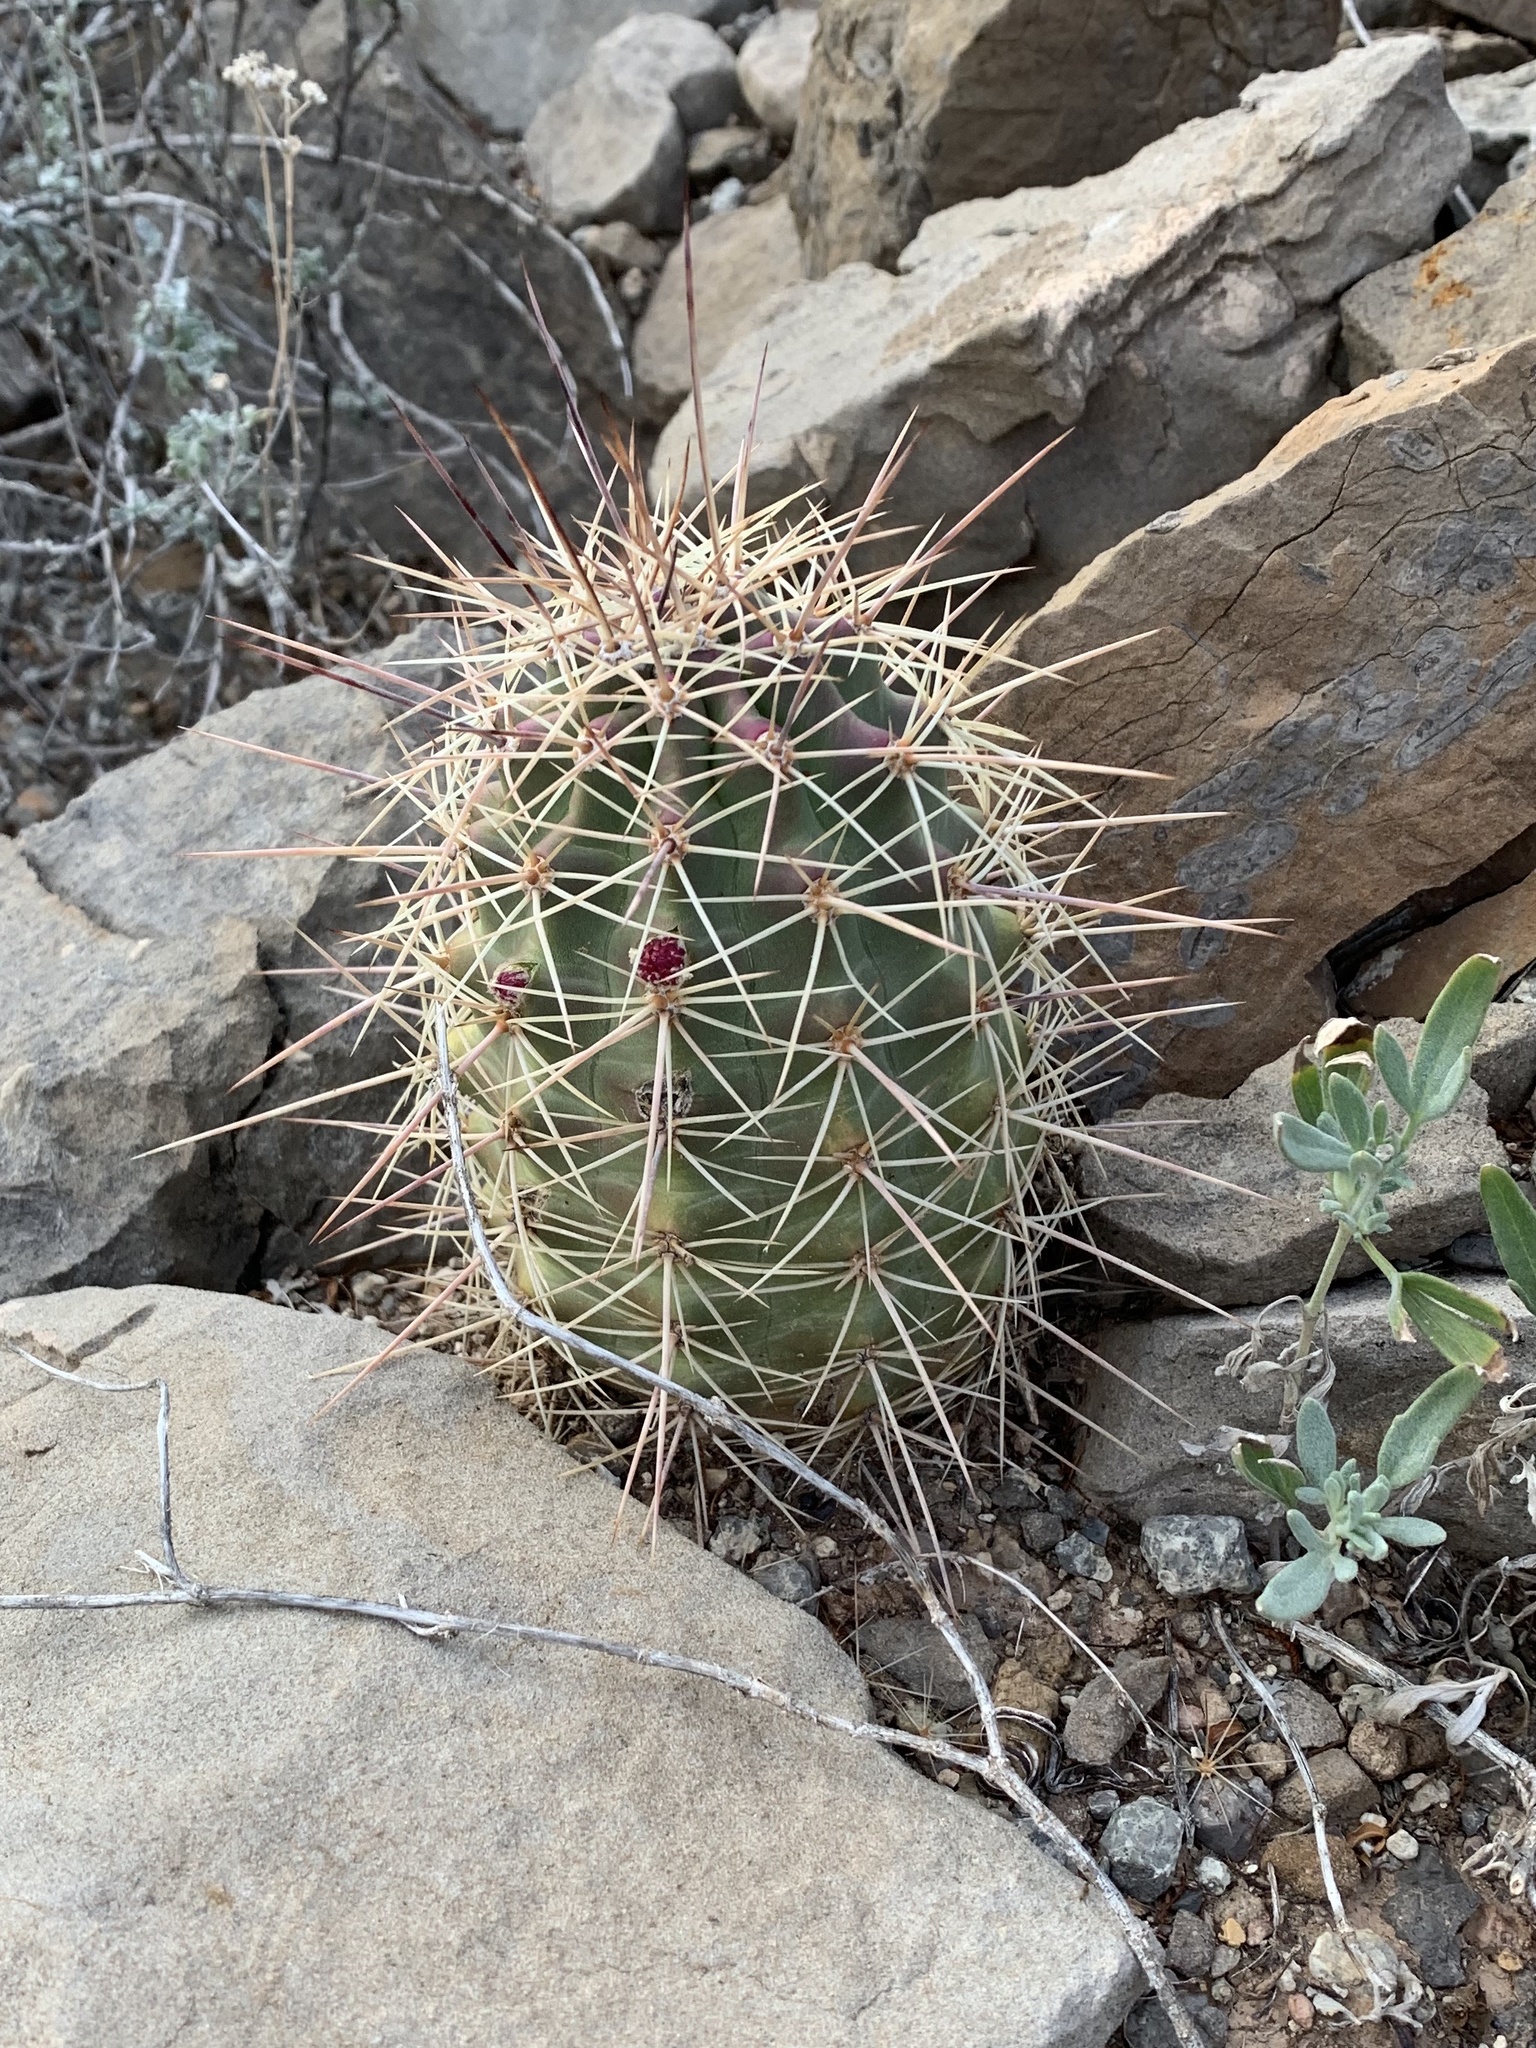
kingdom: Plantae
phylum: Tracheophyta
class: Magnoliopsida
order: Caryophyllales
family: Cactaceae
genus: Echinocereus
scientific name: Echinocereus coccineus
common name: Scarlet hedgehog cactus
